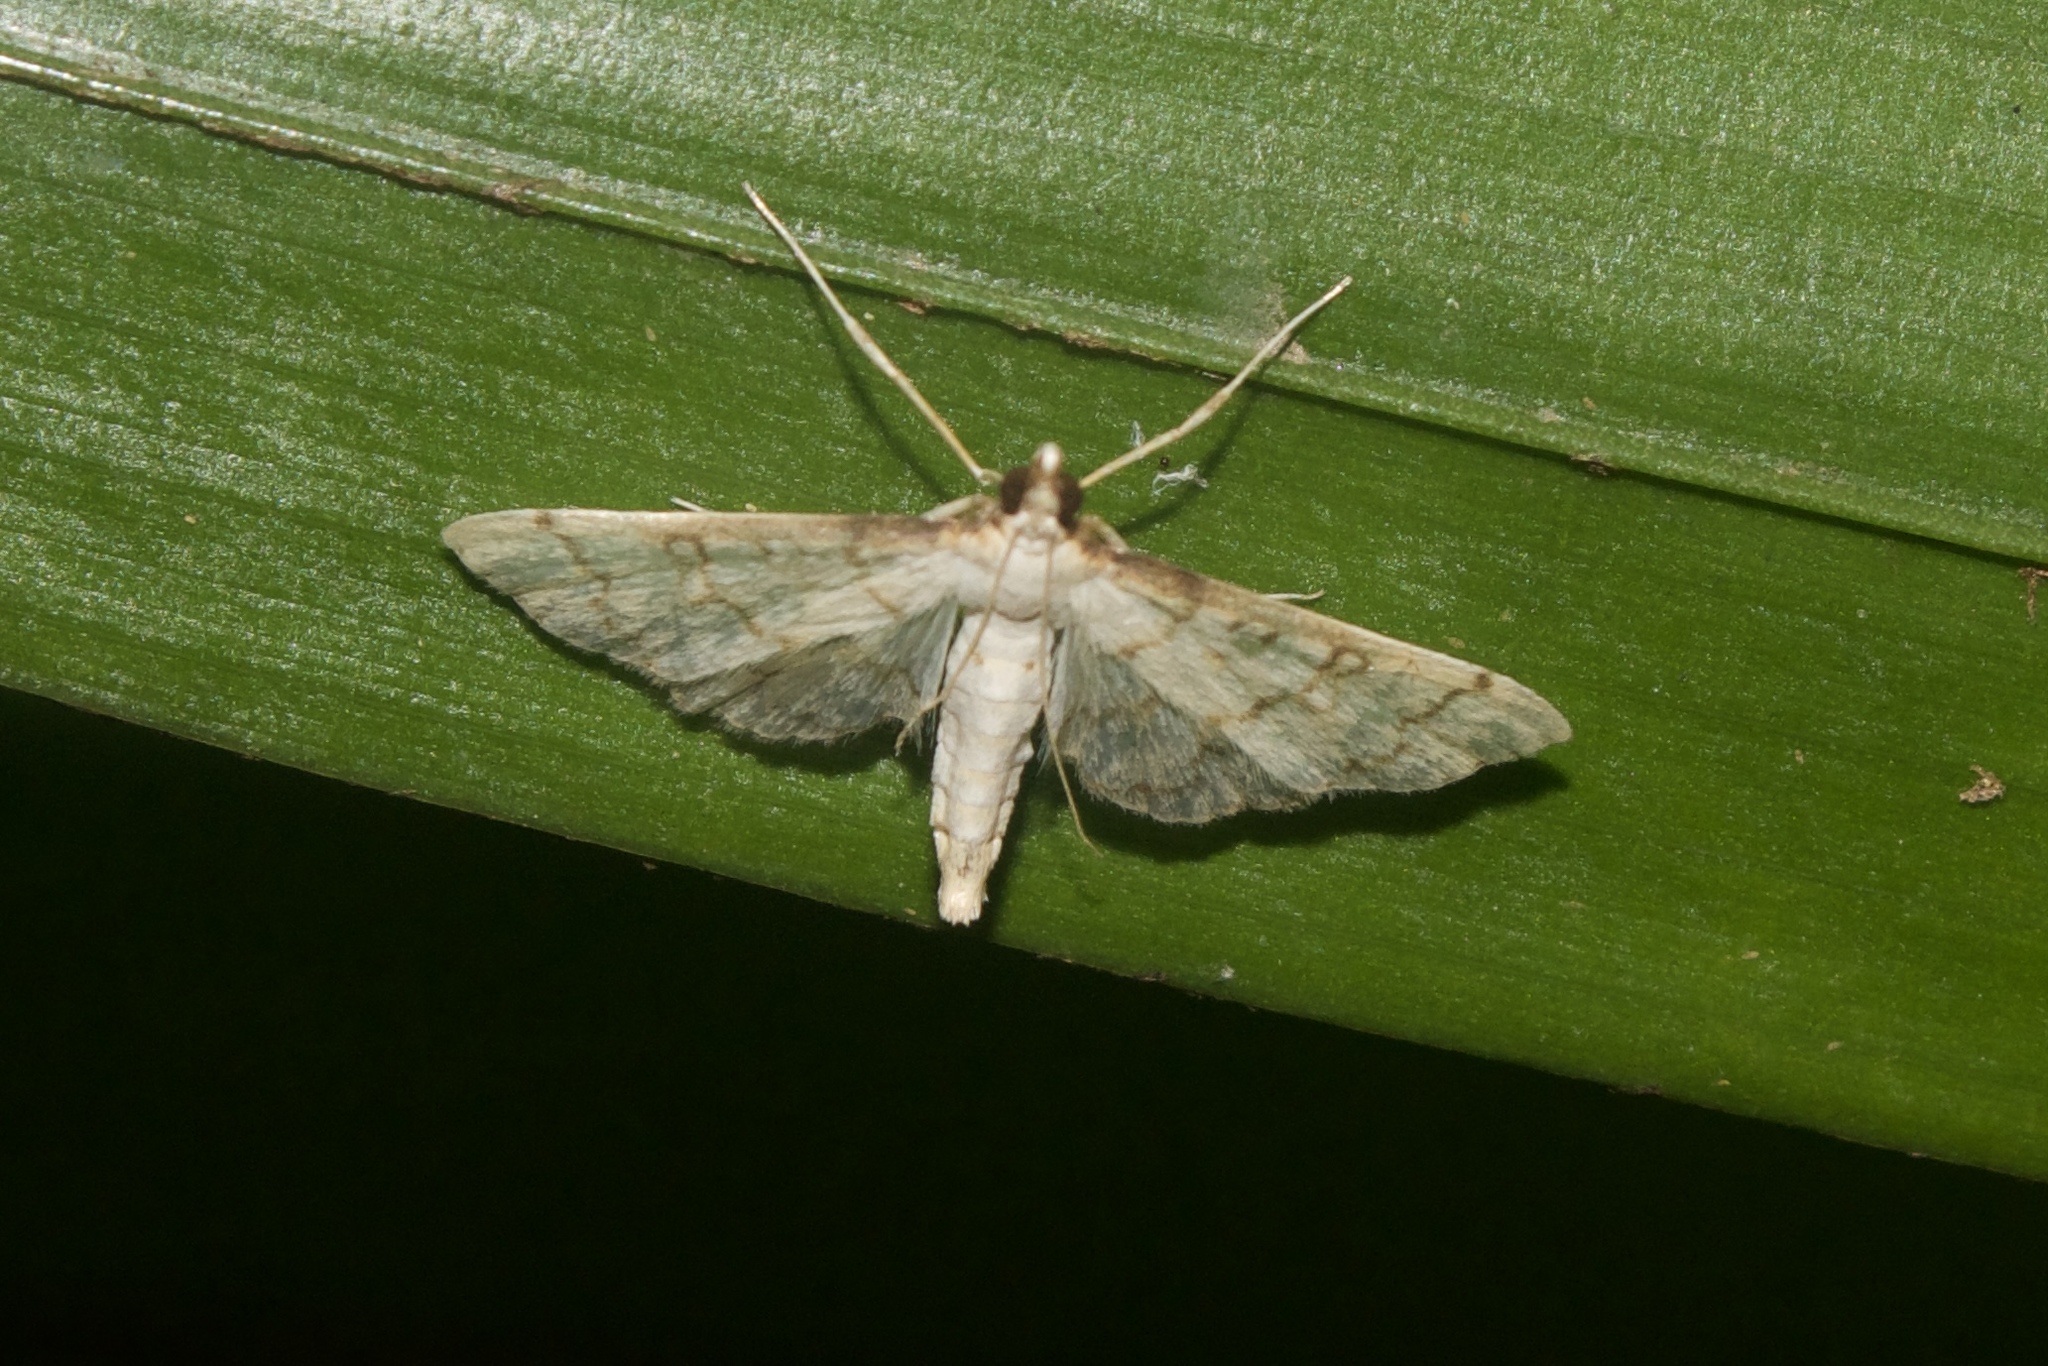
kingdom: Animalia
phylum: Arthropoda
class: Insecta
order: Lepidoptera
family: Crambidae
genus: Stenia
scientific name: Stenia saponalis
